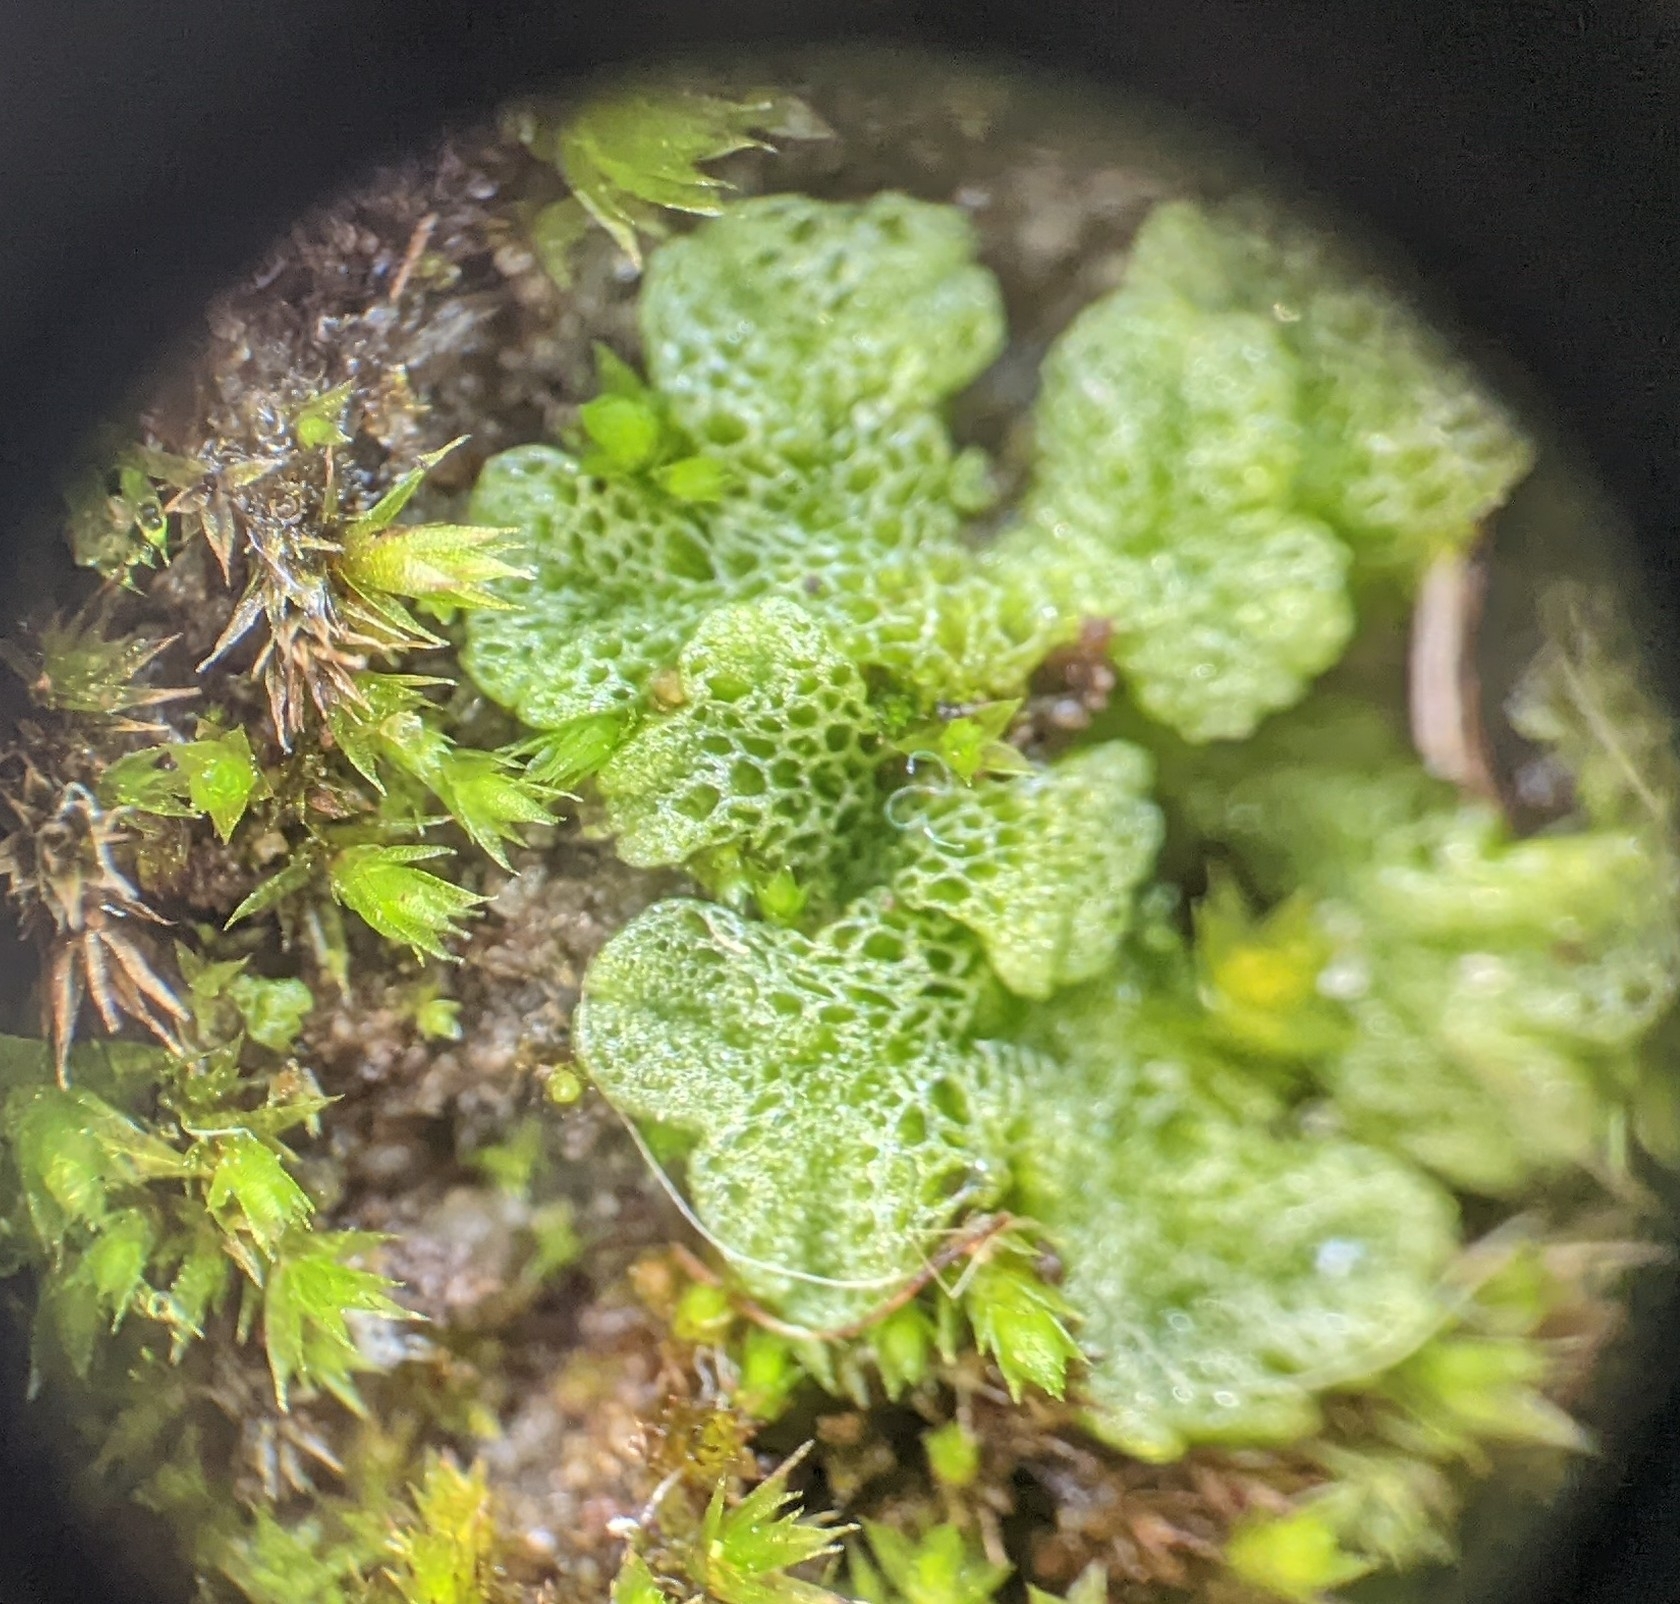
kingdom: Plantae
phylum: Marchantiophyta
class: Marchantiopsida
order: Marchantiales
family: Ricciaceae
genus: Riccia
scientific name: Riccia cavernosa
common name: Cavernous crystalwort
